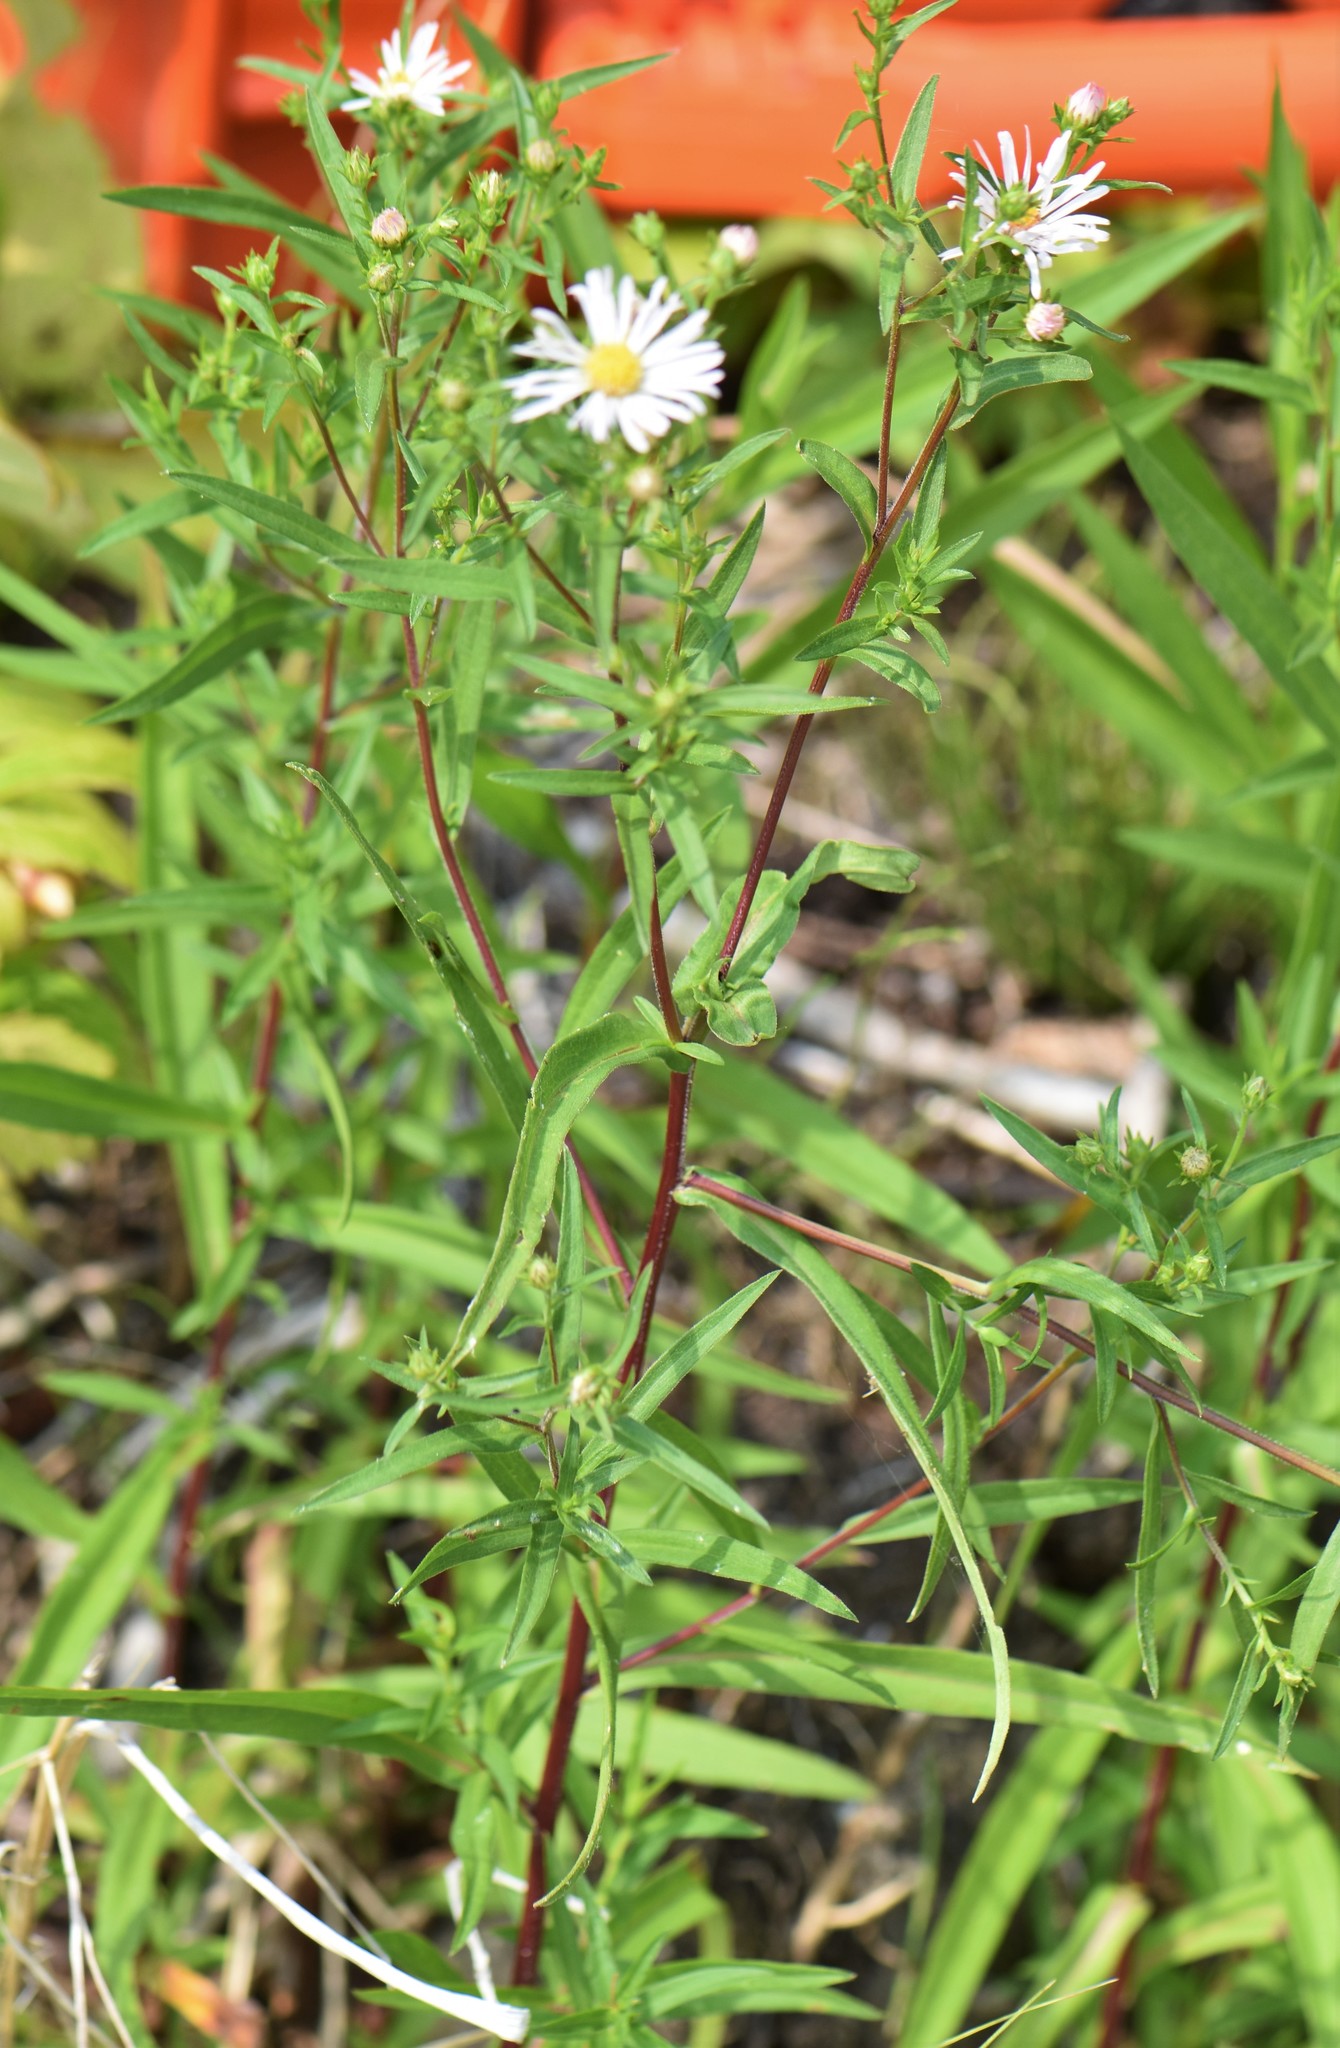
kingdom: Plantae
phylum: Tracheophyta
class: Magnoliopsida
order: Asterales
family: Asteraceae
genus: Symphyotrichum
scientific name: Symphyotrichum lanceolatum
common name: Panicled aster
